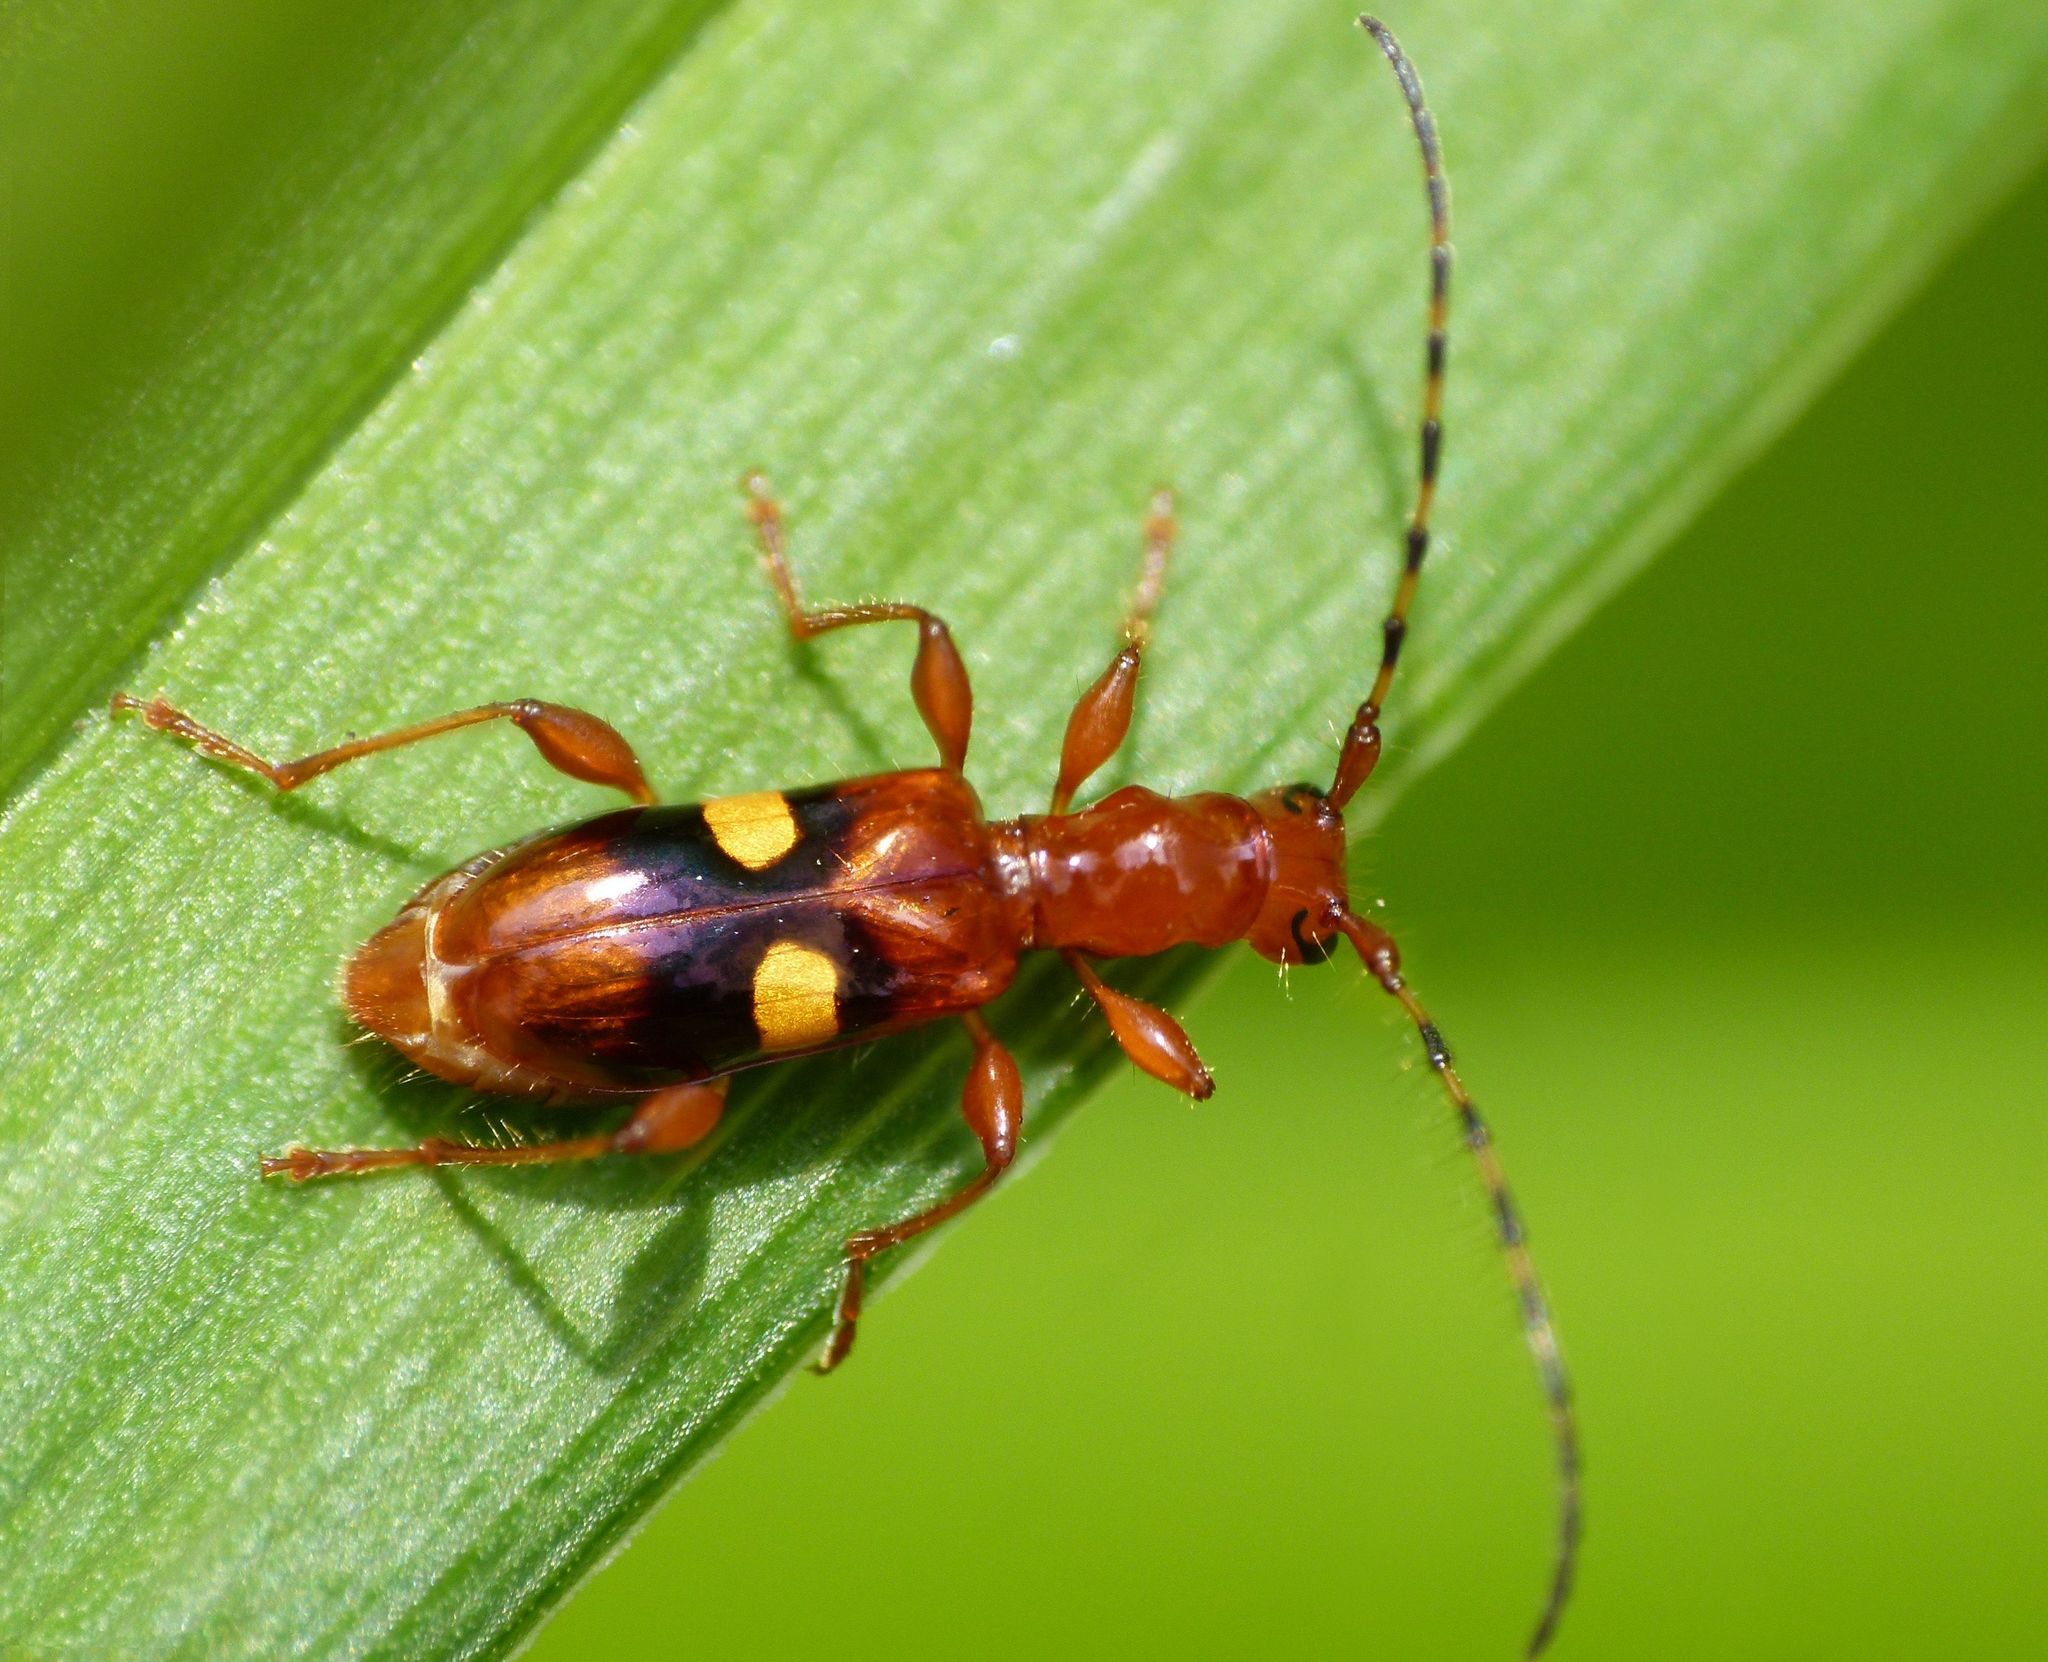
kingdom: Animalia
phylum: Arthropoda
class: Insecta
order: Coleoptera
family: Cerambycidae
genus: Zorion
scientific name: Zorion australe
